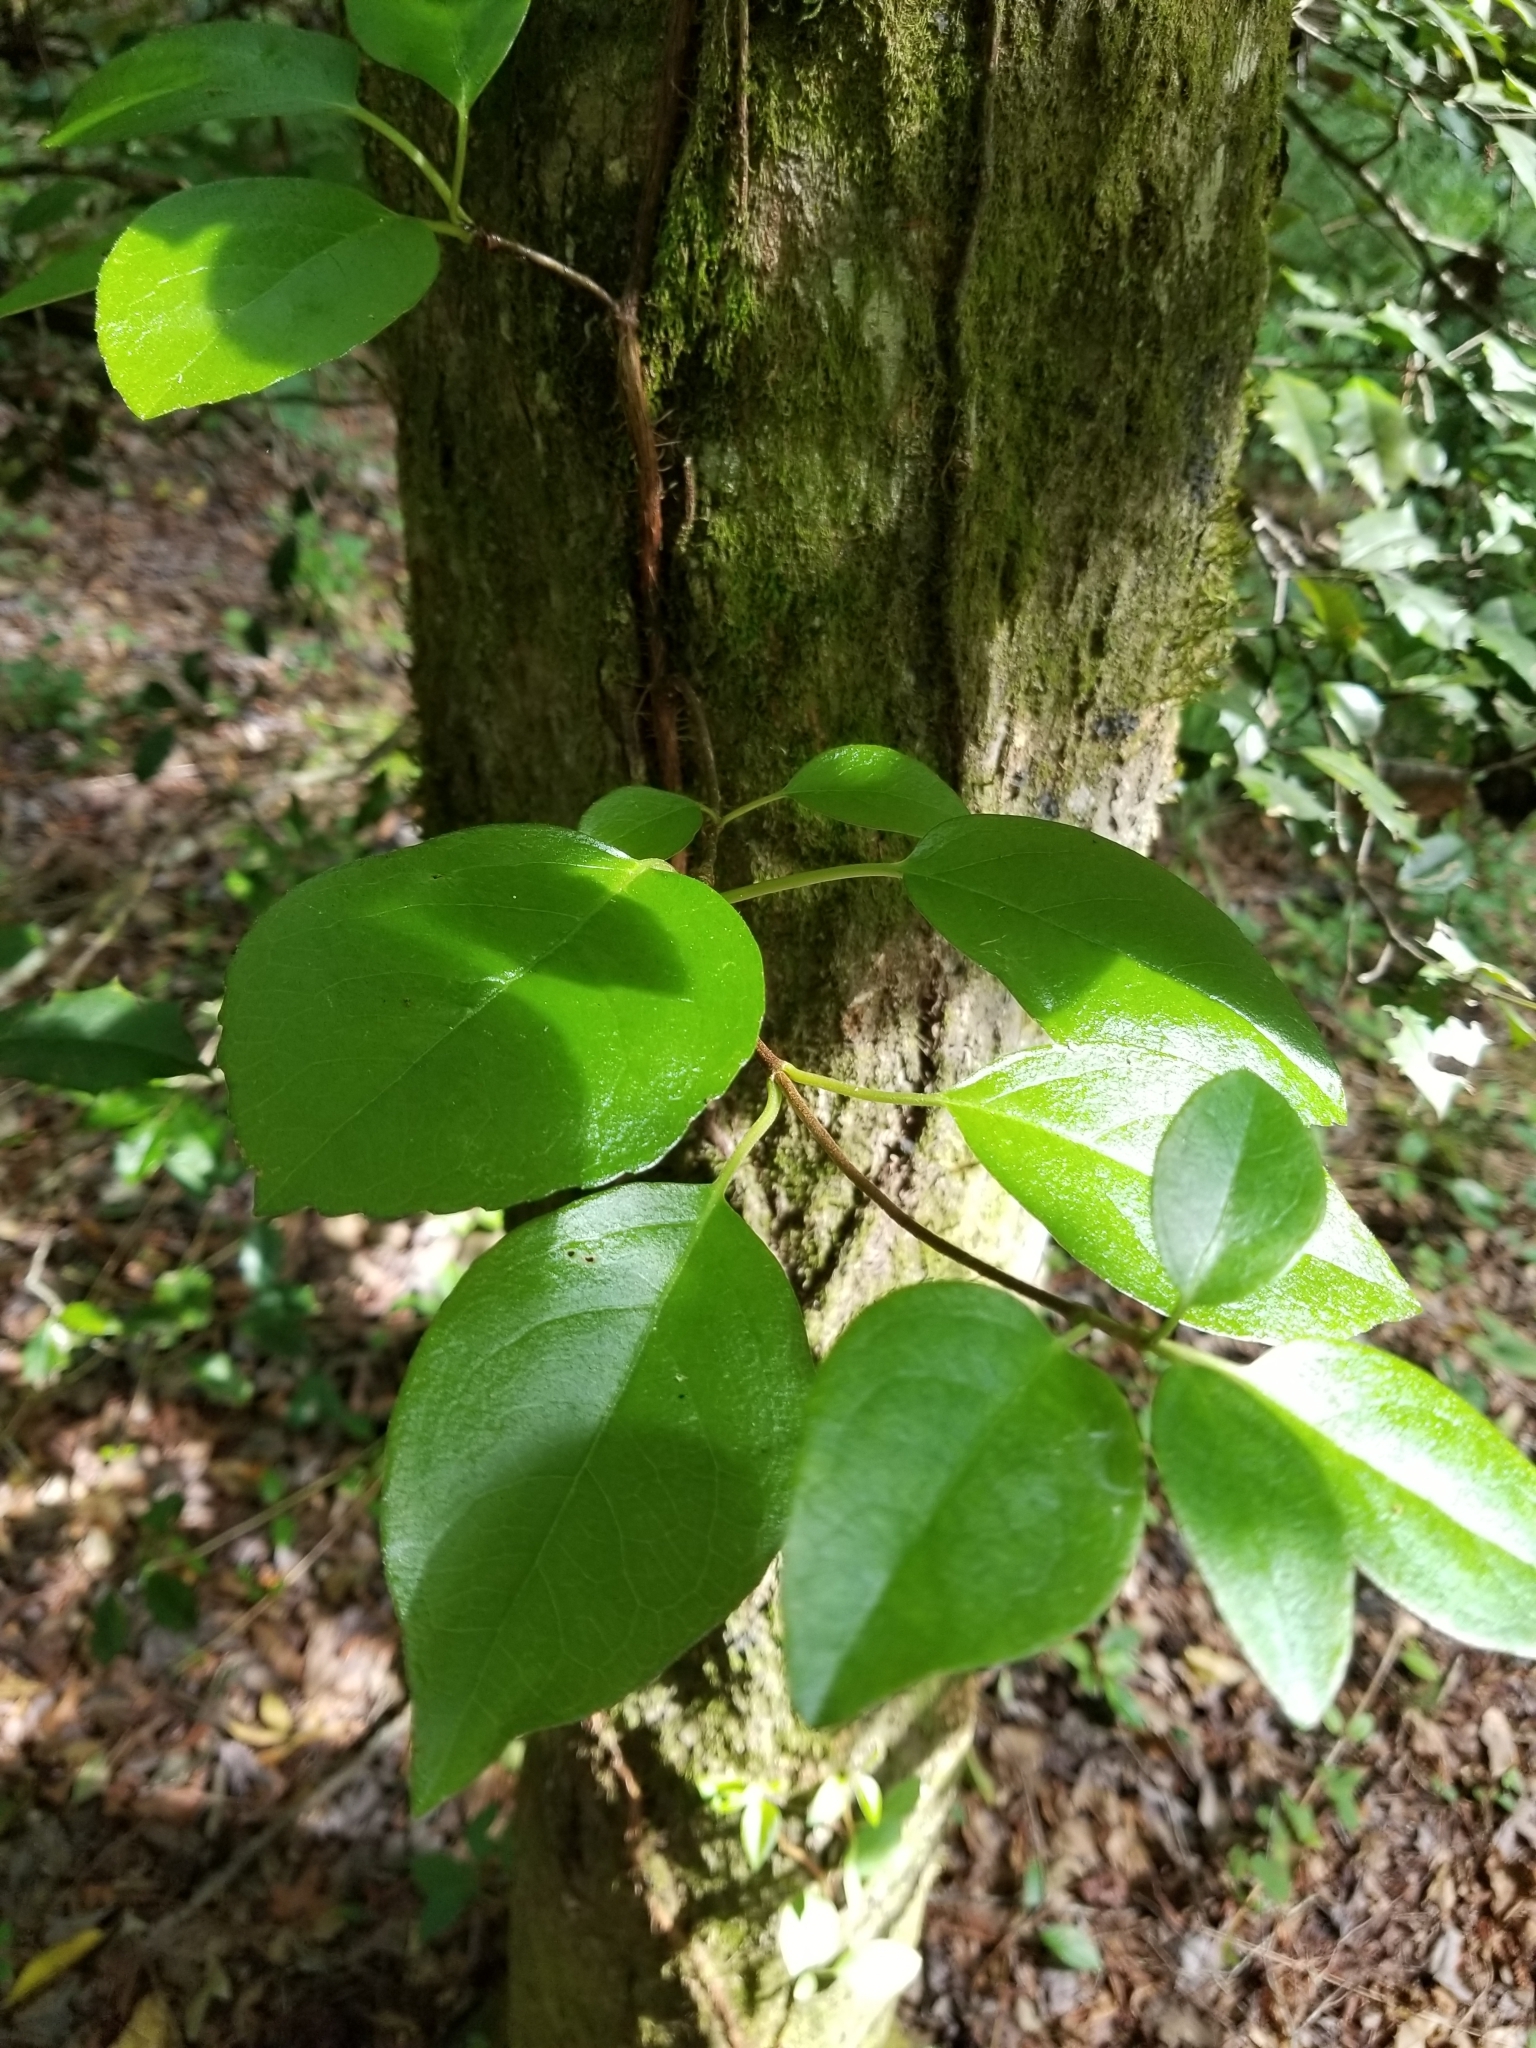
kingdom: Plantae
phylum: Tracheophyta
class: Magnoliopsida
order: Cornales
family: Hydrangeaceae
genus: Hydrangea
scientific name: Hydrangea barbara
